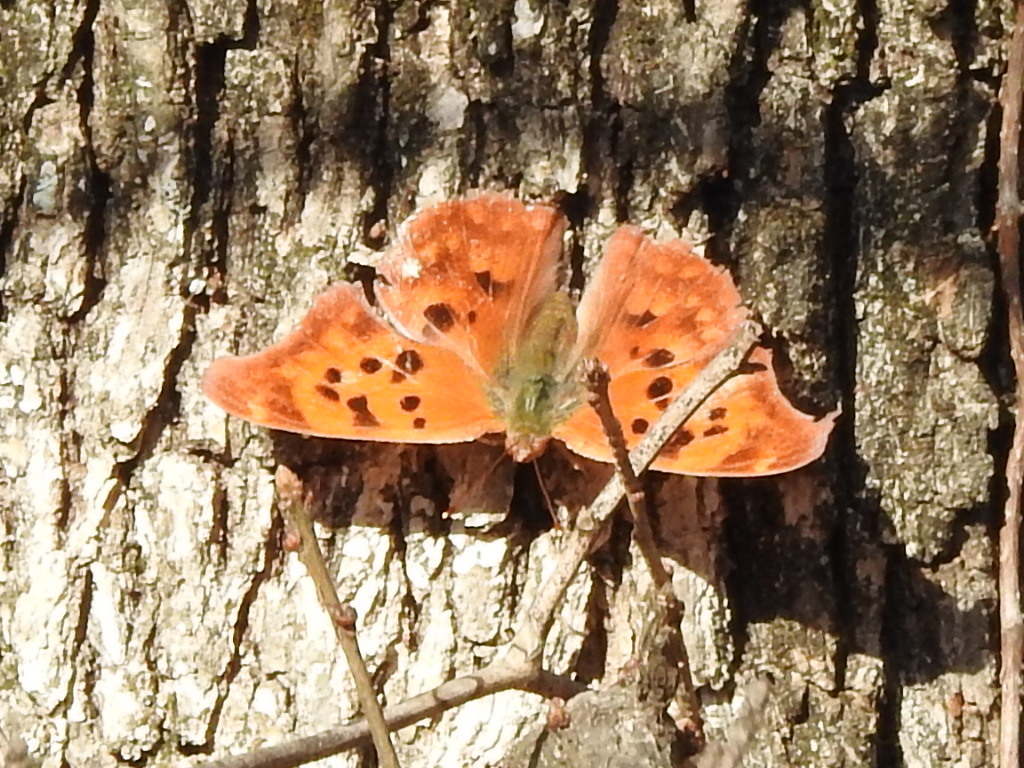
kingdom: Animalia
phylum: Arthropoda
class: Insecta
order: Lepidoptera
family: Nymphalidae
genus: Polygonia
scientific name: Polygonia interrogationis
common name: Question mark
